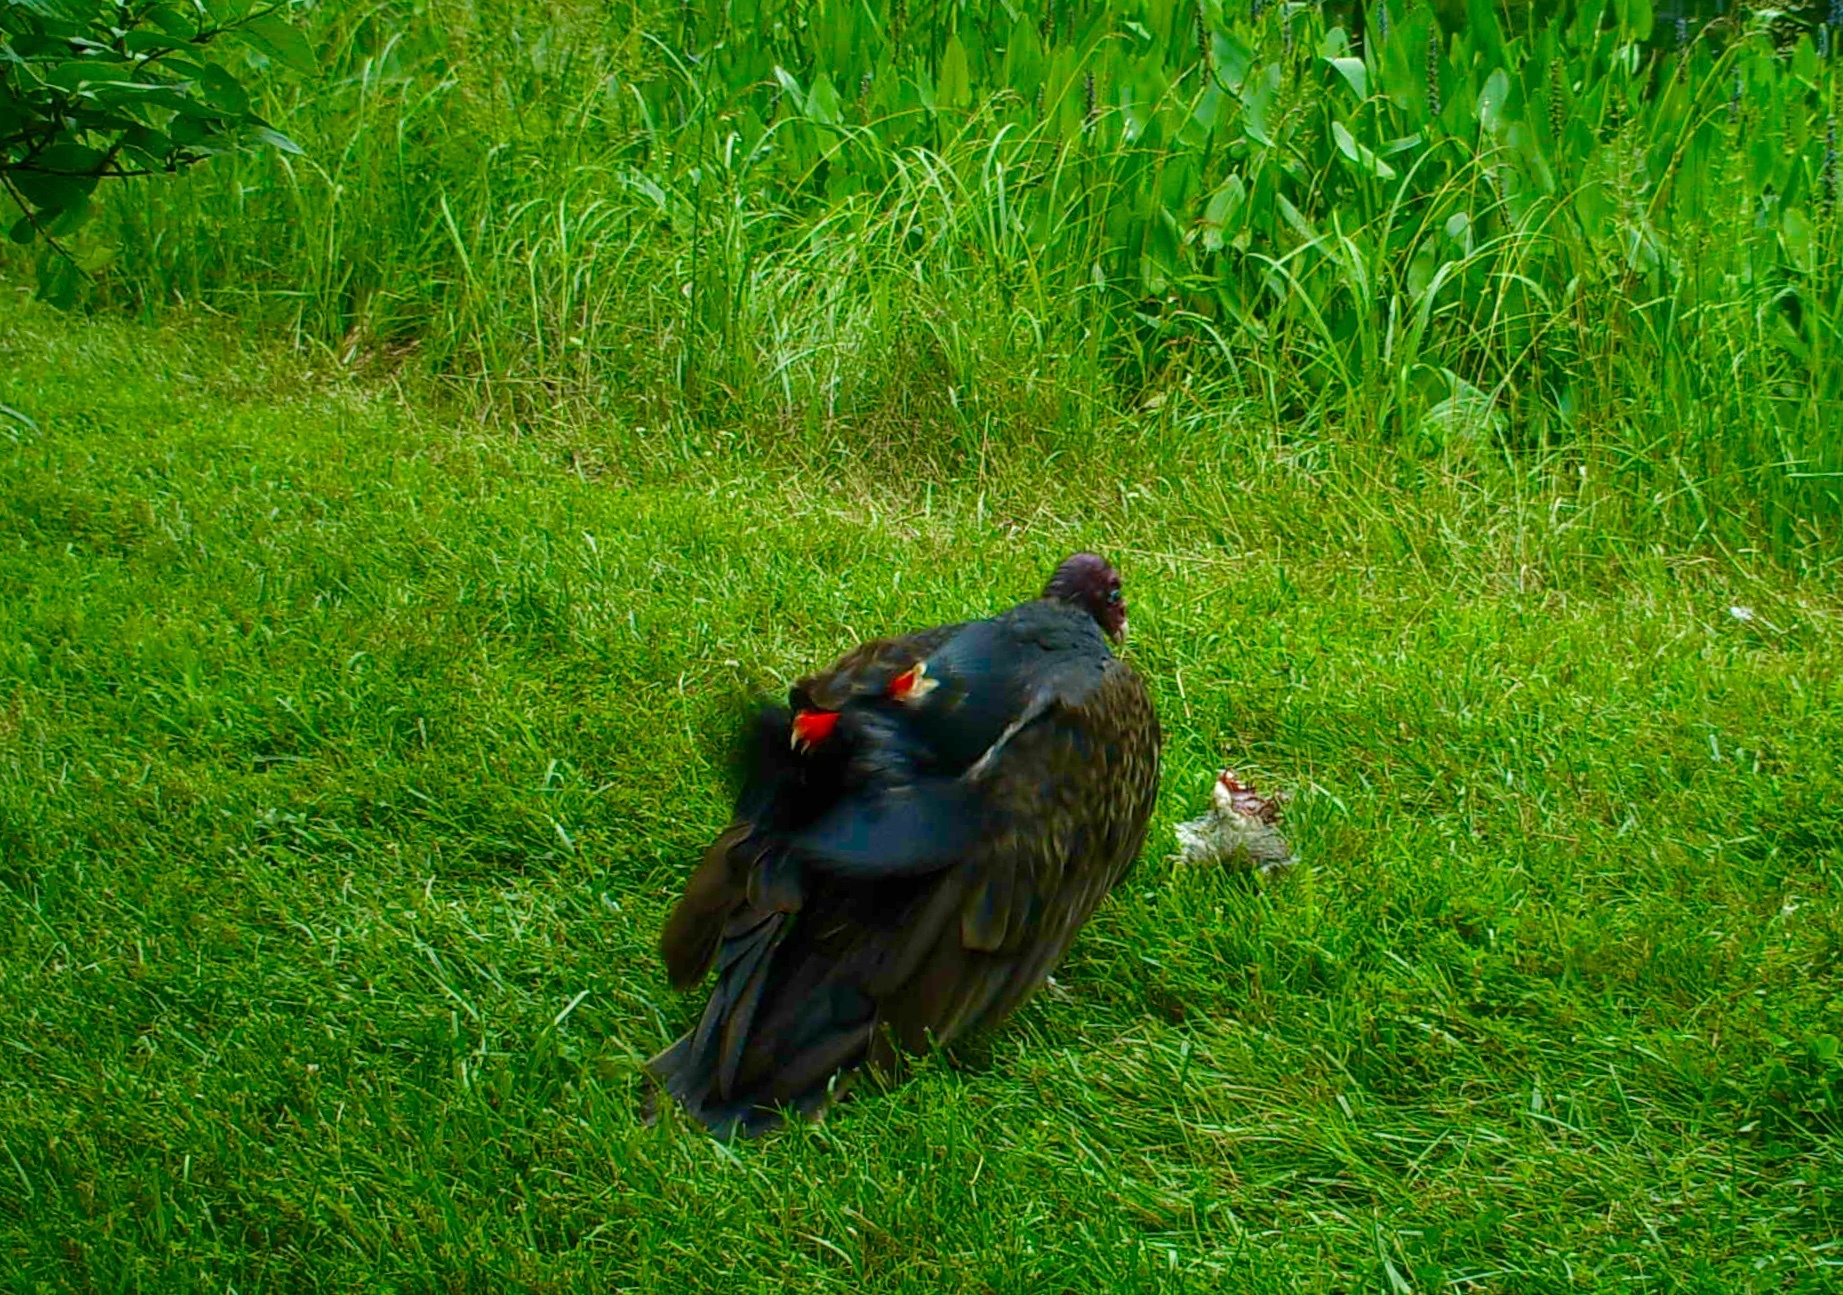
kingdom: Animalia
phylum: Chordata
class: Aves
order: Passeriformes
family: Icteridae
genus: Agelaius
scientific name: Agelaius phoeniceus
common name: Red-winged blackbird
